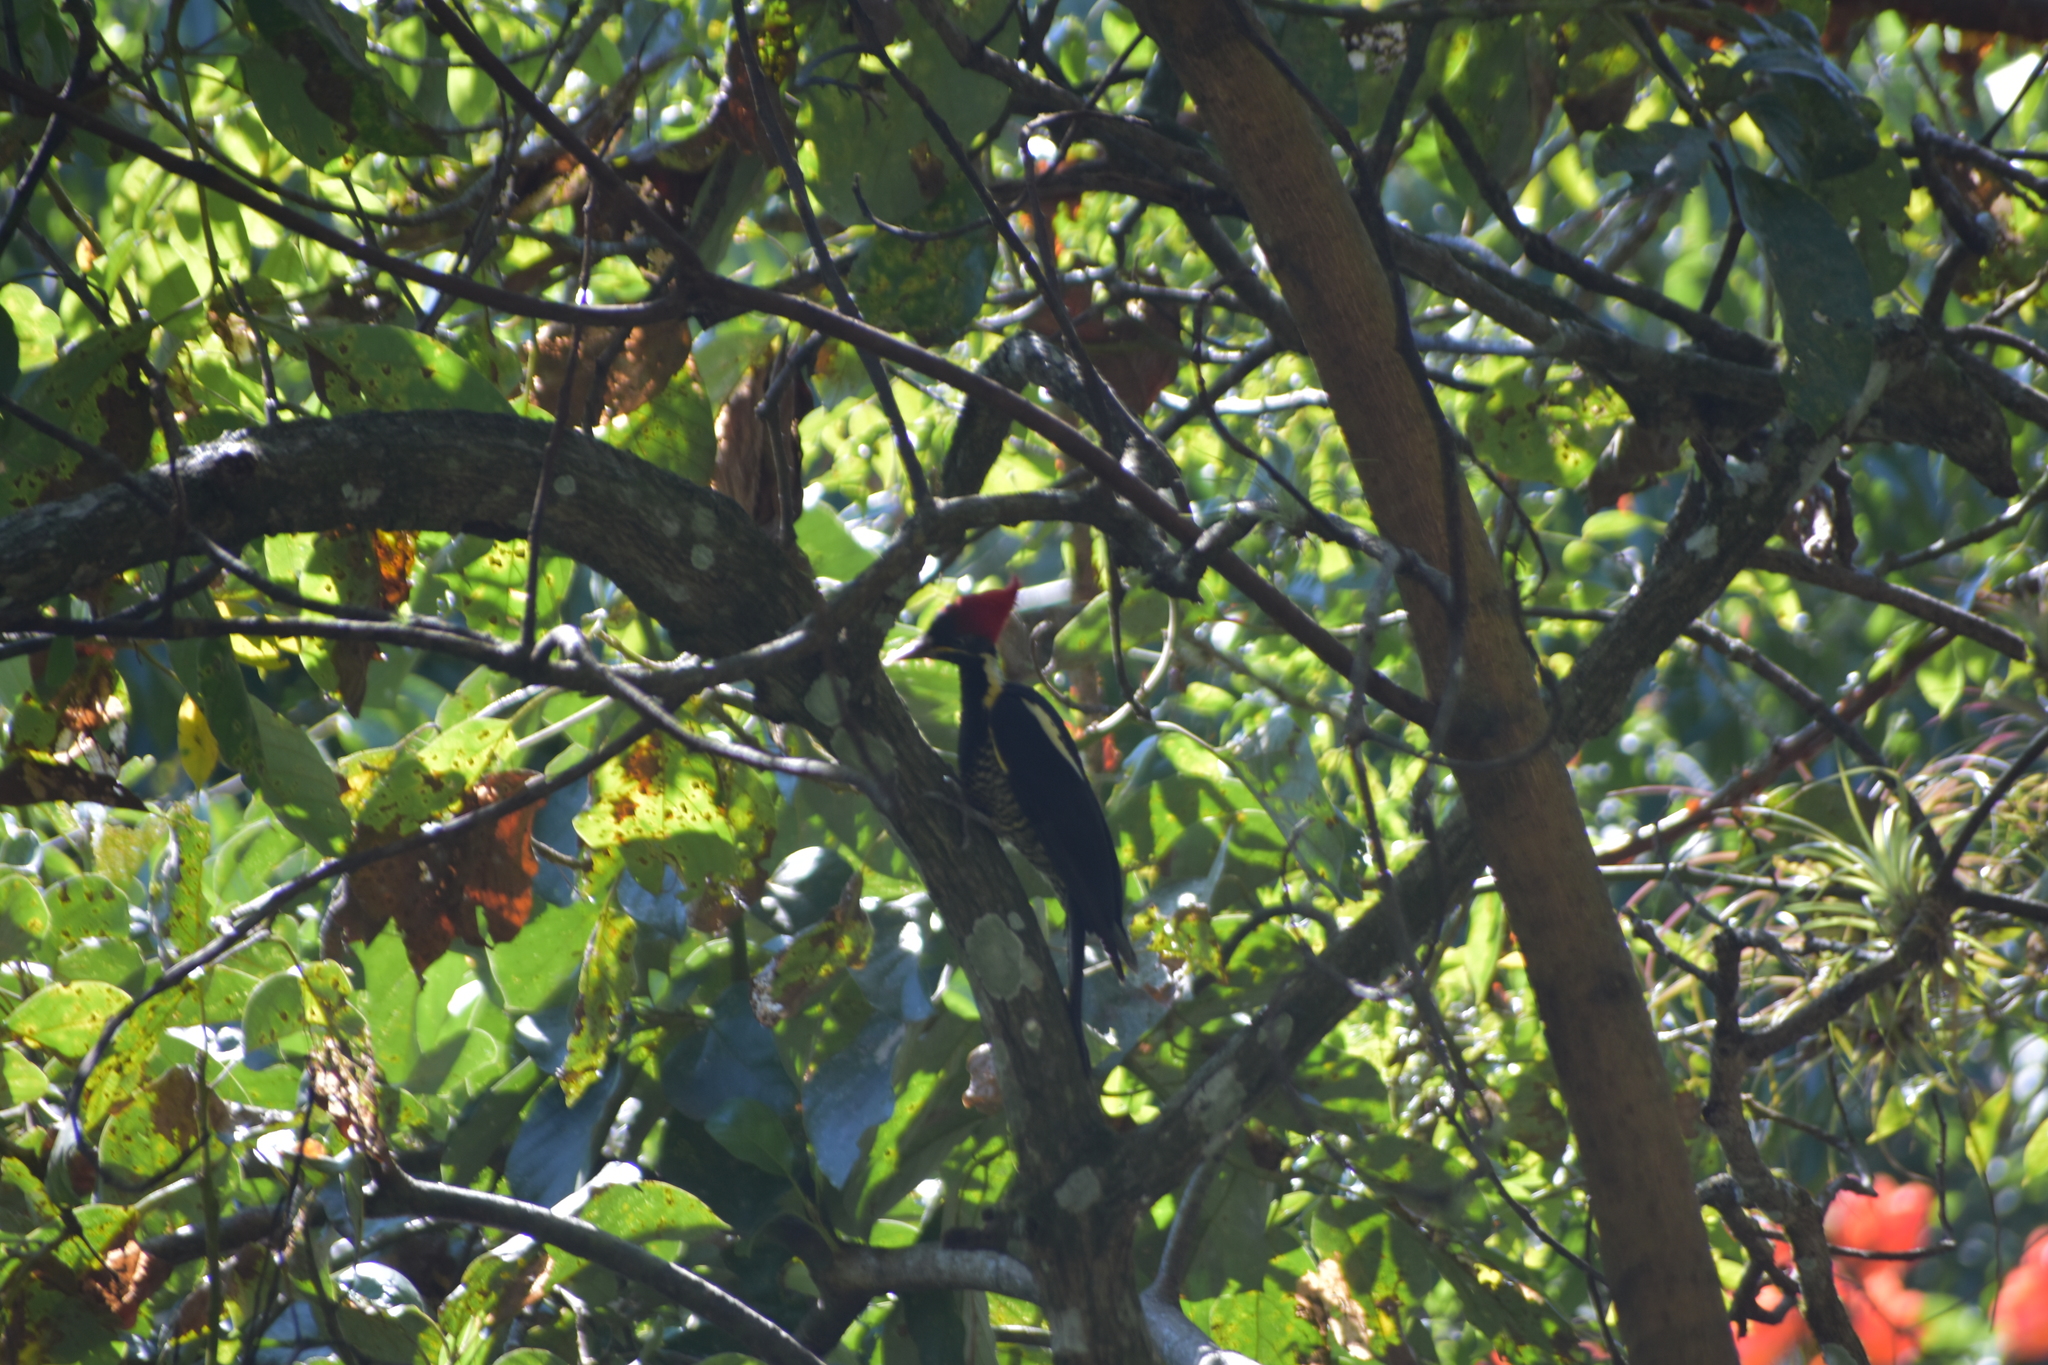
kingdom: Animalia
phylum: Chordata
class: Aves
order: Piciformes
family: Picidae
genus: Dryocopus
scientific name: Dryocopus lineatus
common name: Lineated woodpecker
